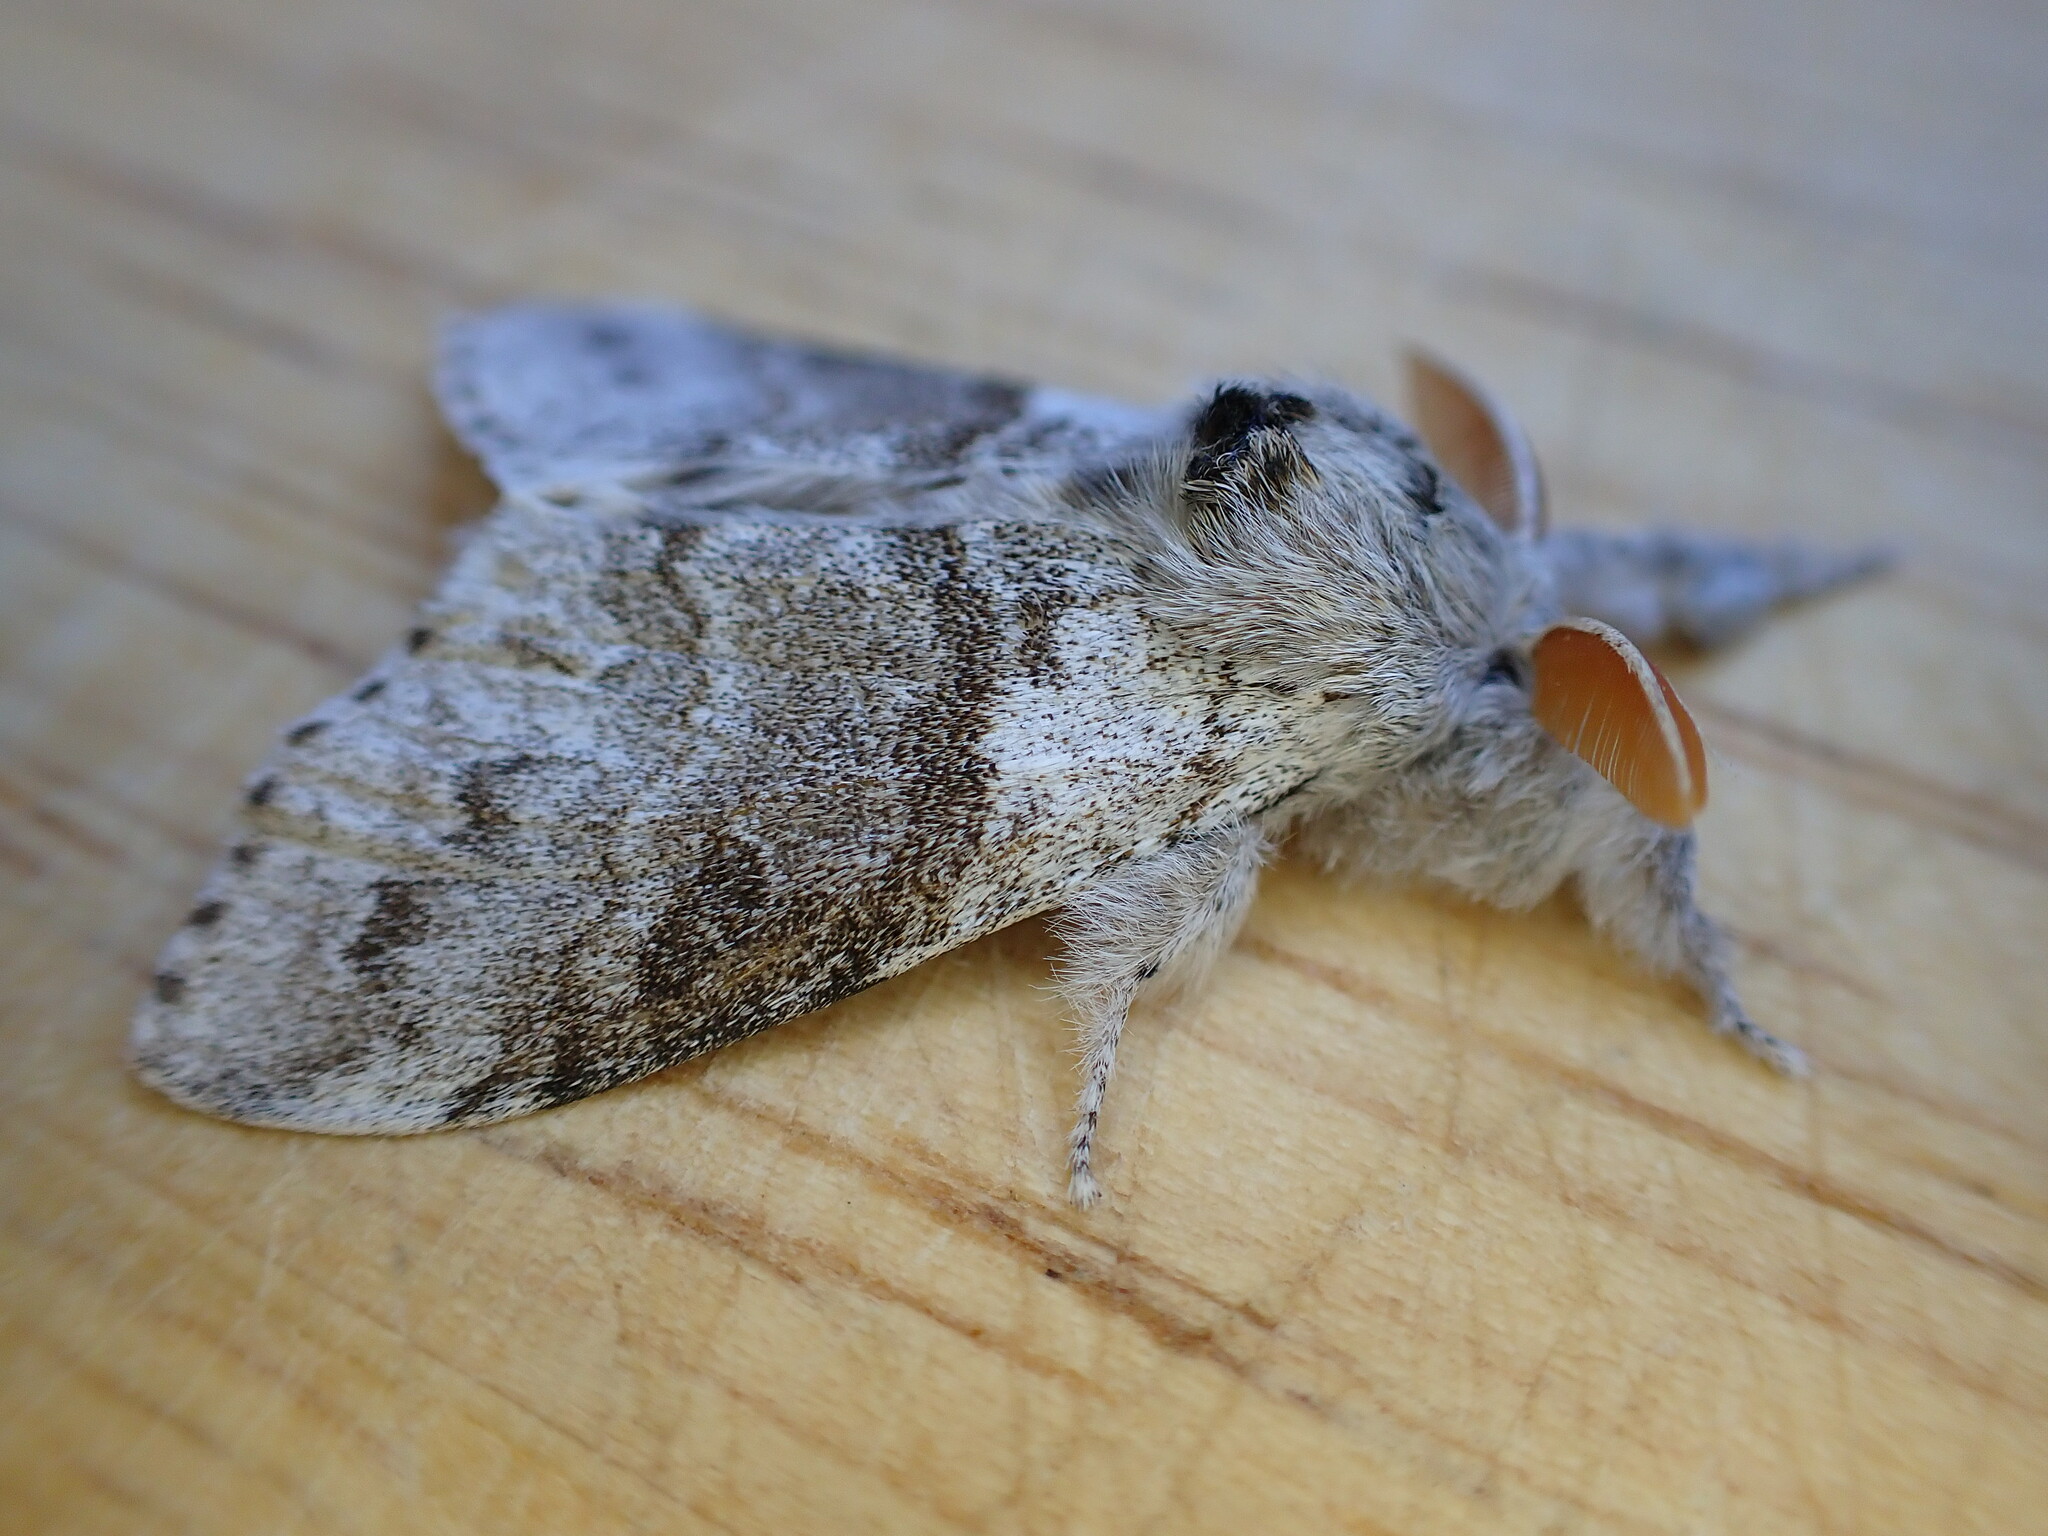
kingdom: Animalia
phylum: Arthropoda
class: Insecta
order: Lepidoptera
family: Erebidae
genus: Calliteara
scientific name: Calliteara pudibunda
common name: Pale tussock
